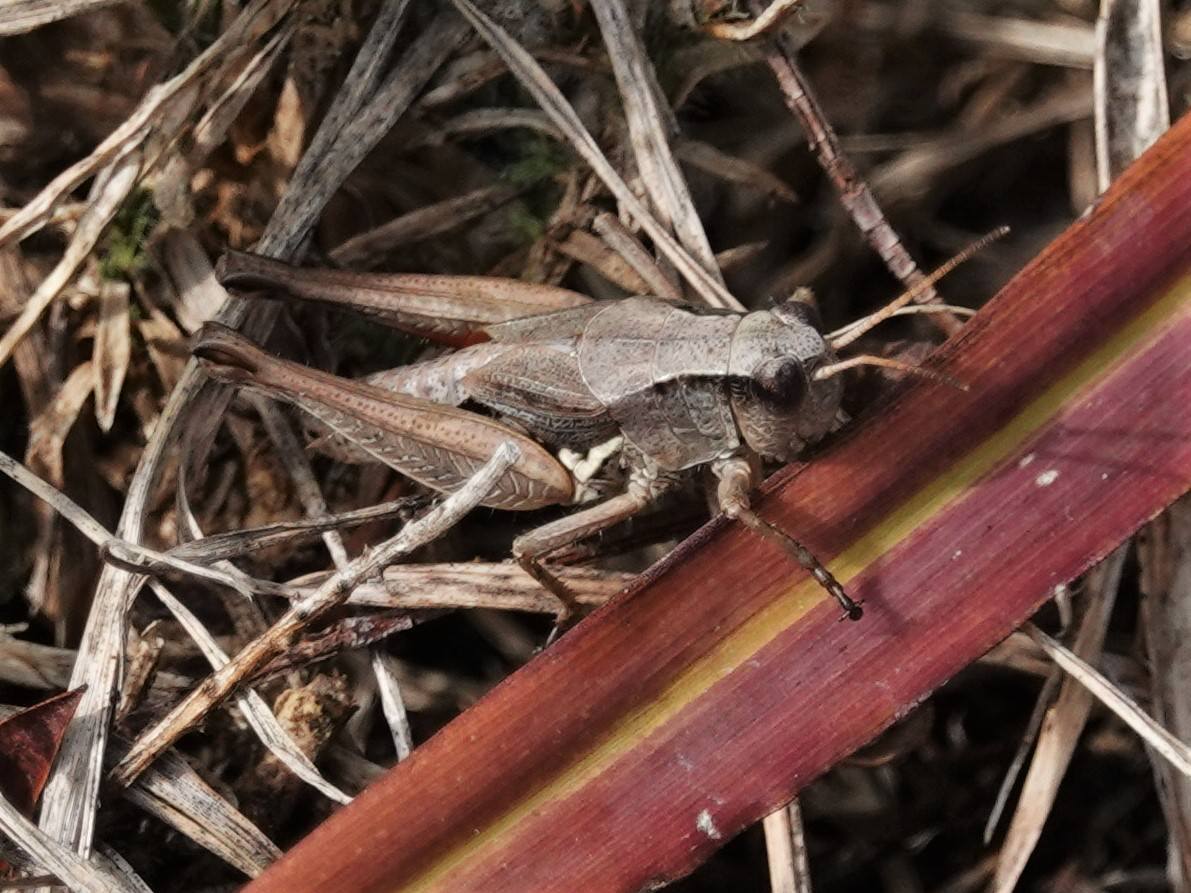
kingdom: Animalia
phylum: Arthropoda
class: Insecta
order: Orthoptera
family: Acrididae
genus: Phaulacridium
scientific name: Phaulacridium marginale
